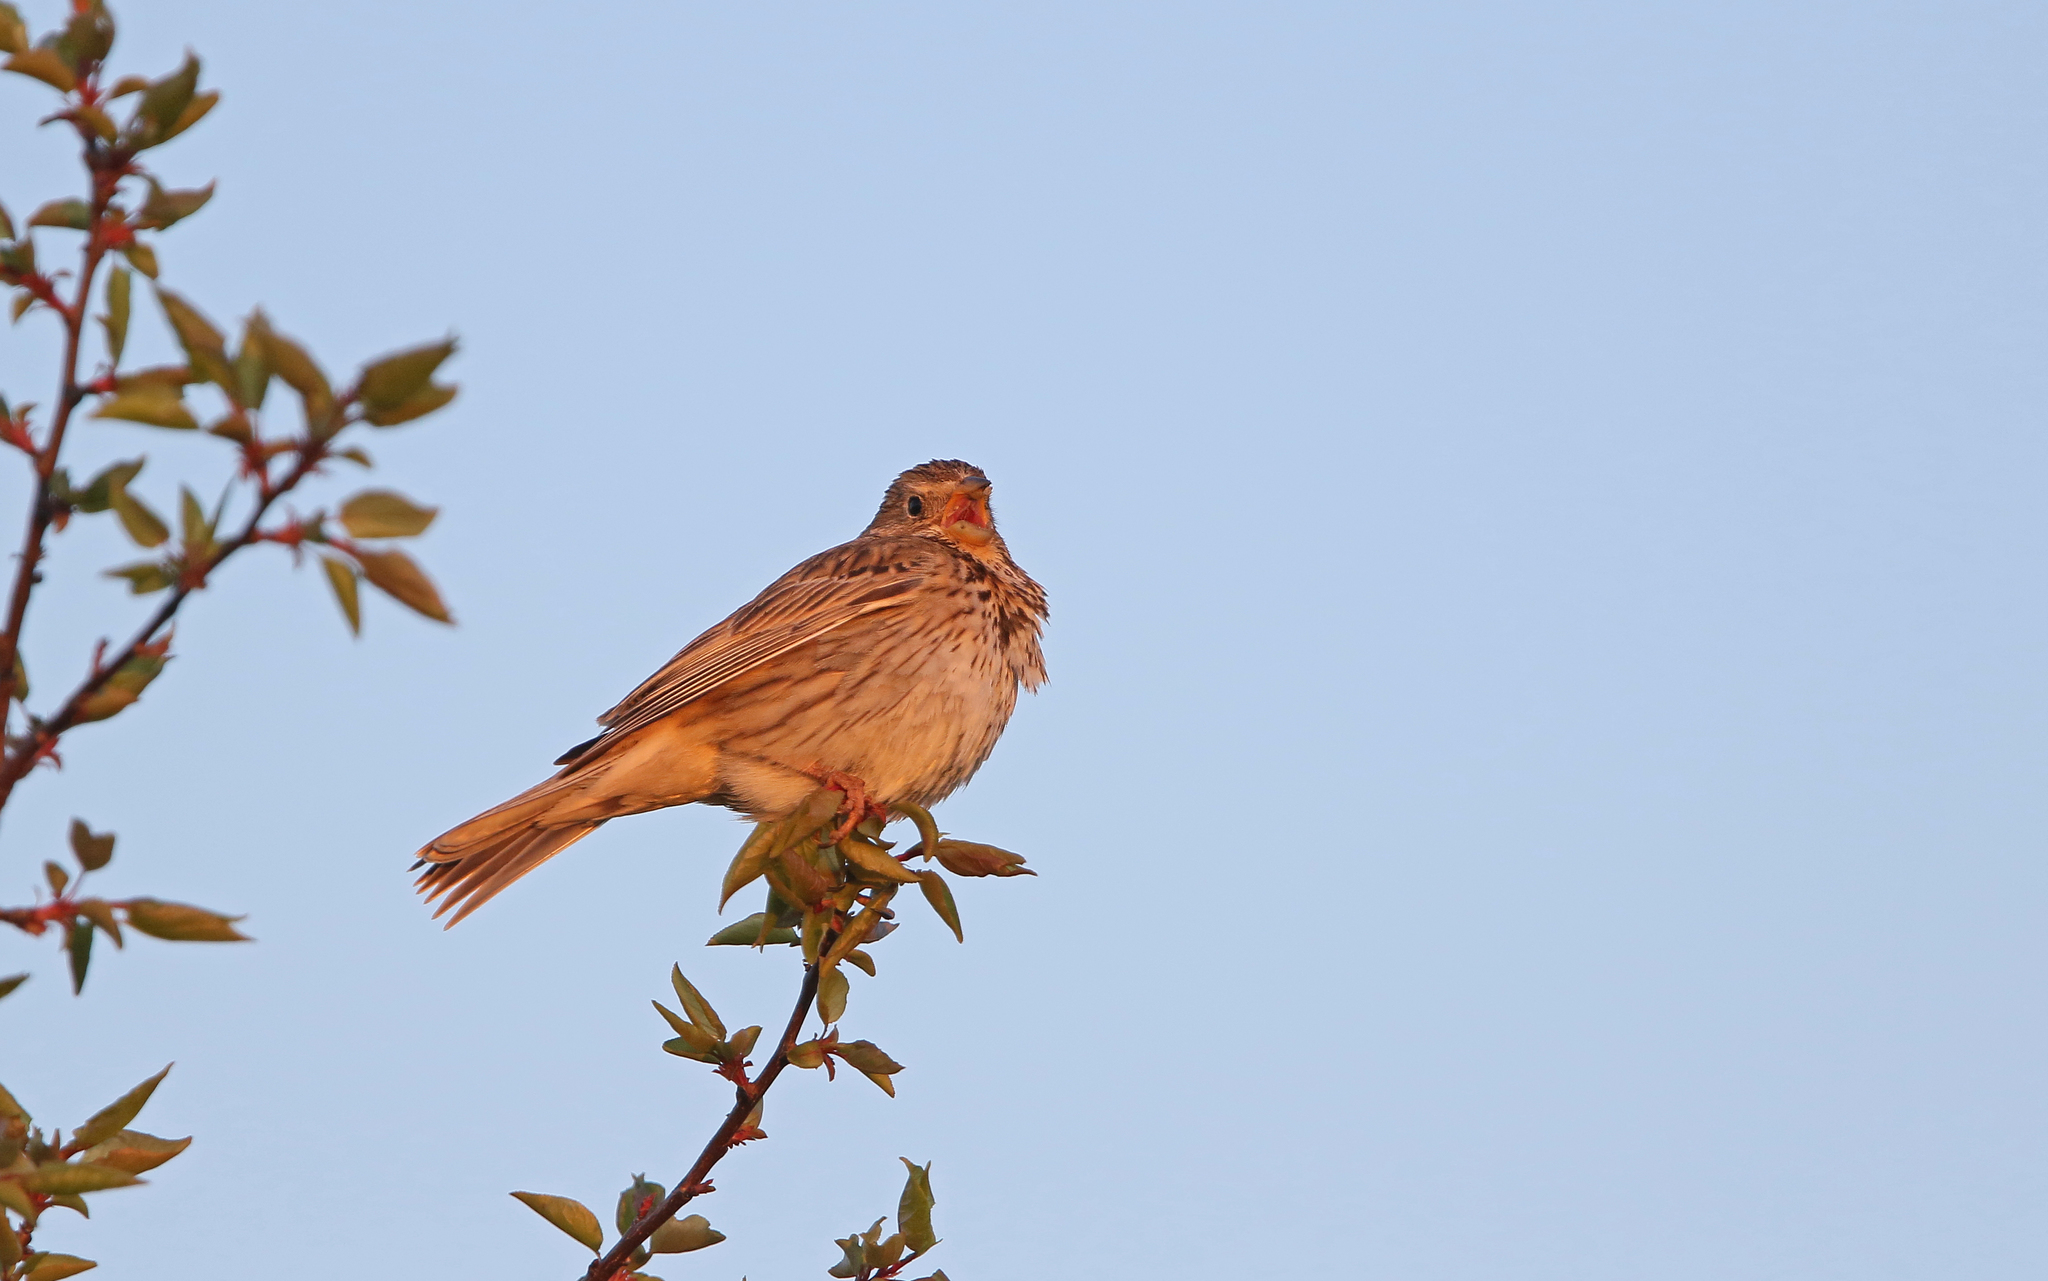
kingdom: Animalia
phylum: Chordata
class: Aves
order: Passeriformes
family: Emberizidae
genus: Emberiza
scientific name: Emberiza calandra
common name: Corn bunting
